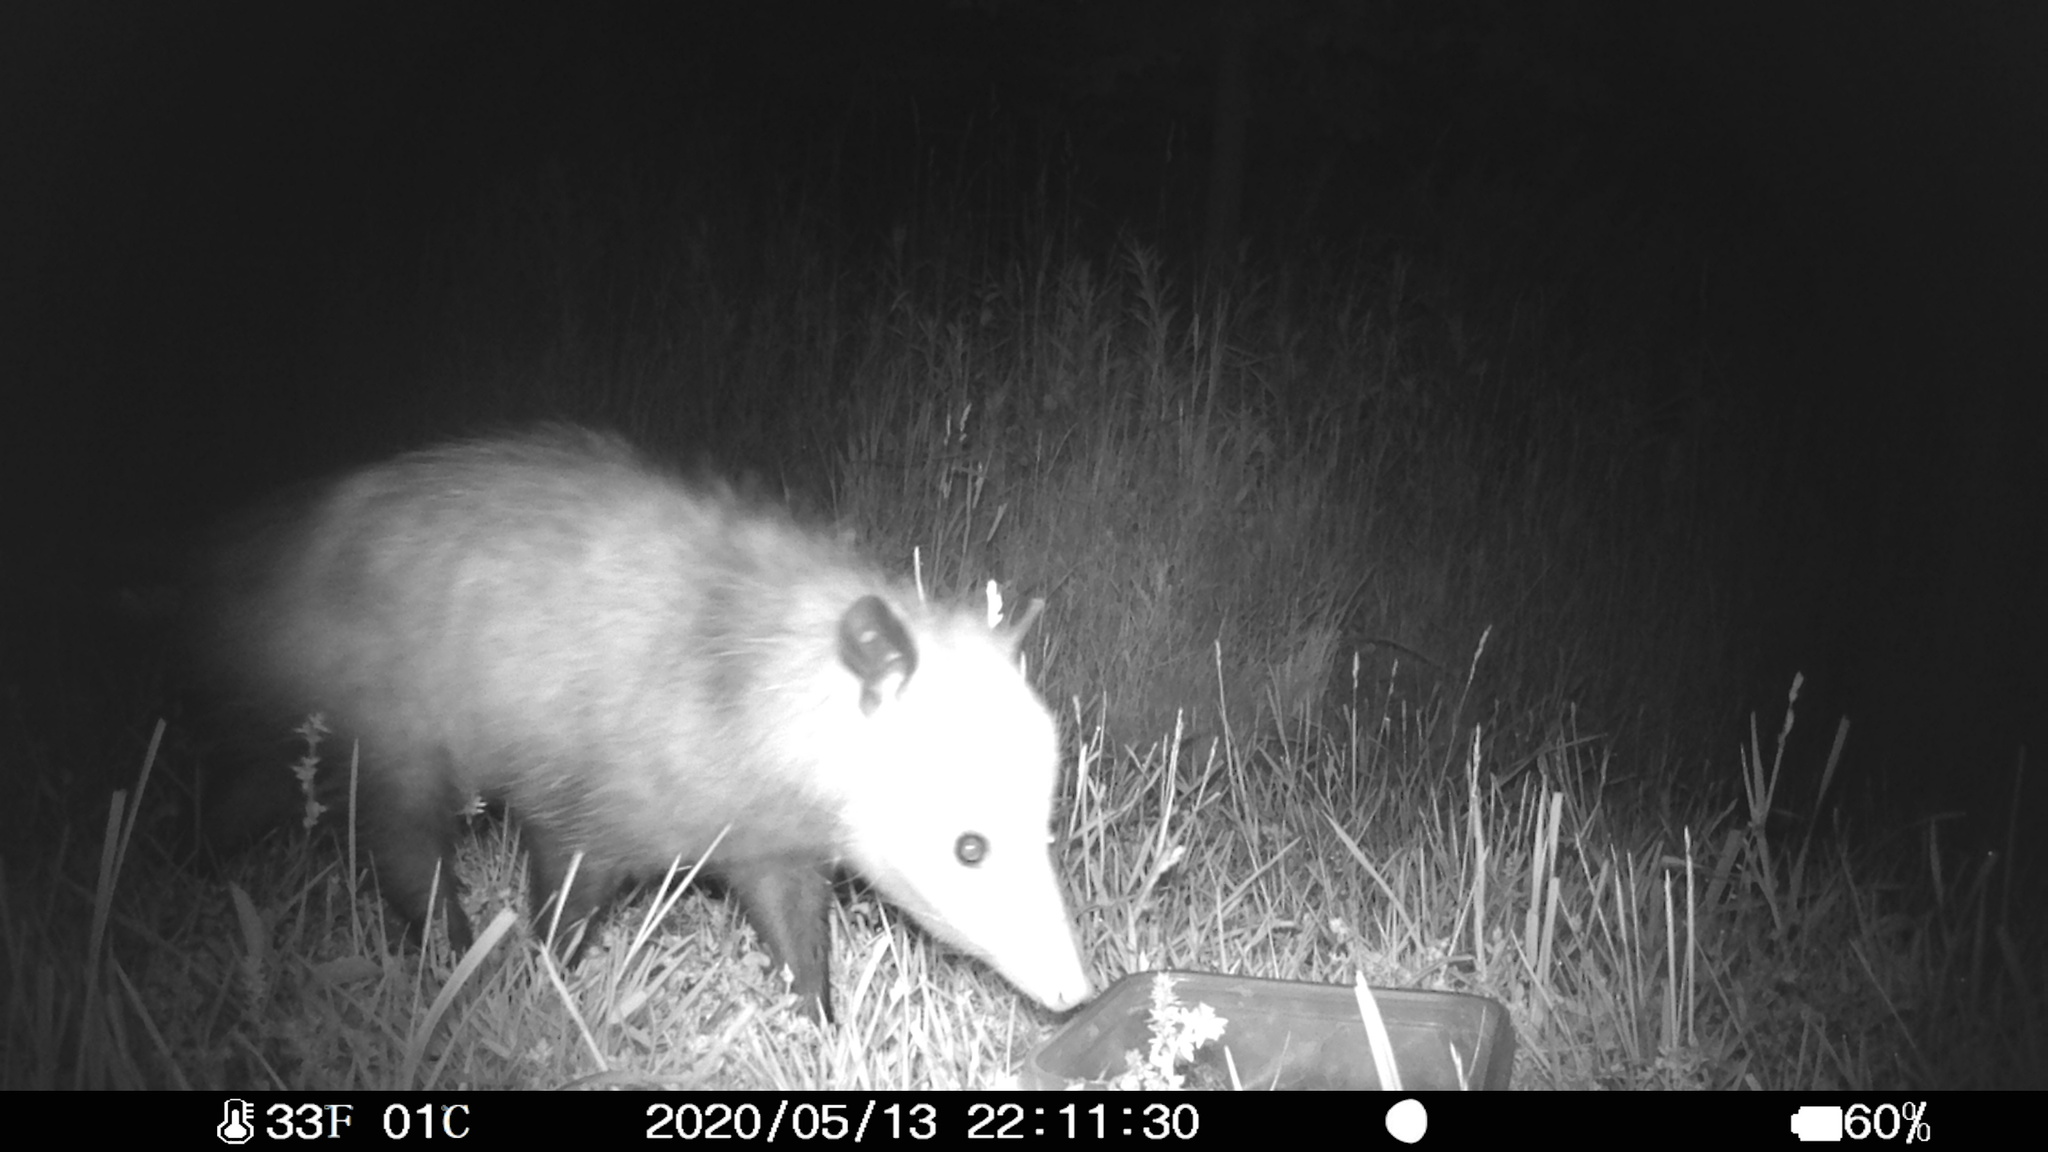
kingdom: Animalia
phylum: Chordata
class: Mammalia
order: Didelphimorphia
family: Didelphidae
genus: Didelphis
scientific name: Didelphis virginiana
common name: Virginia opossum
